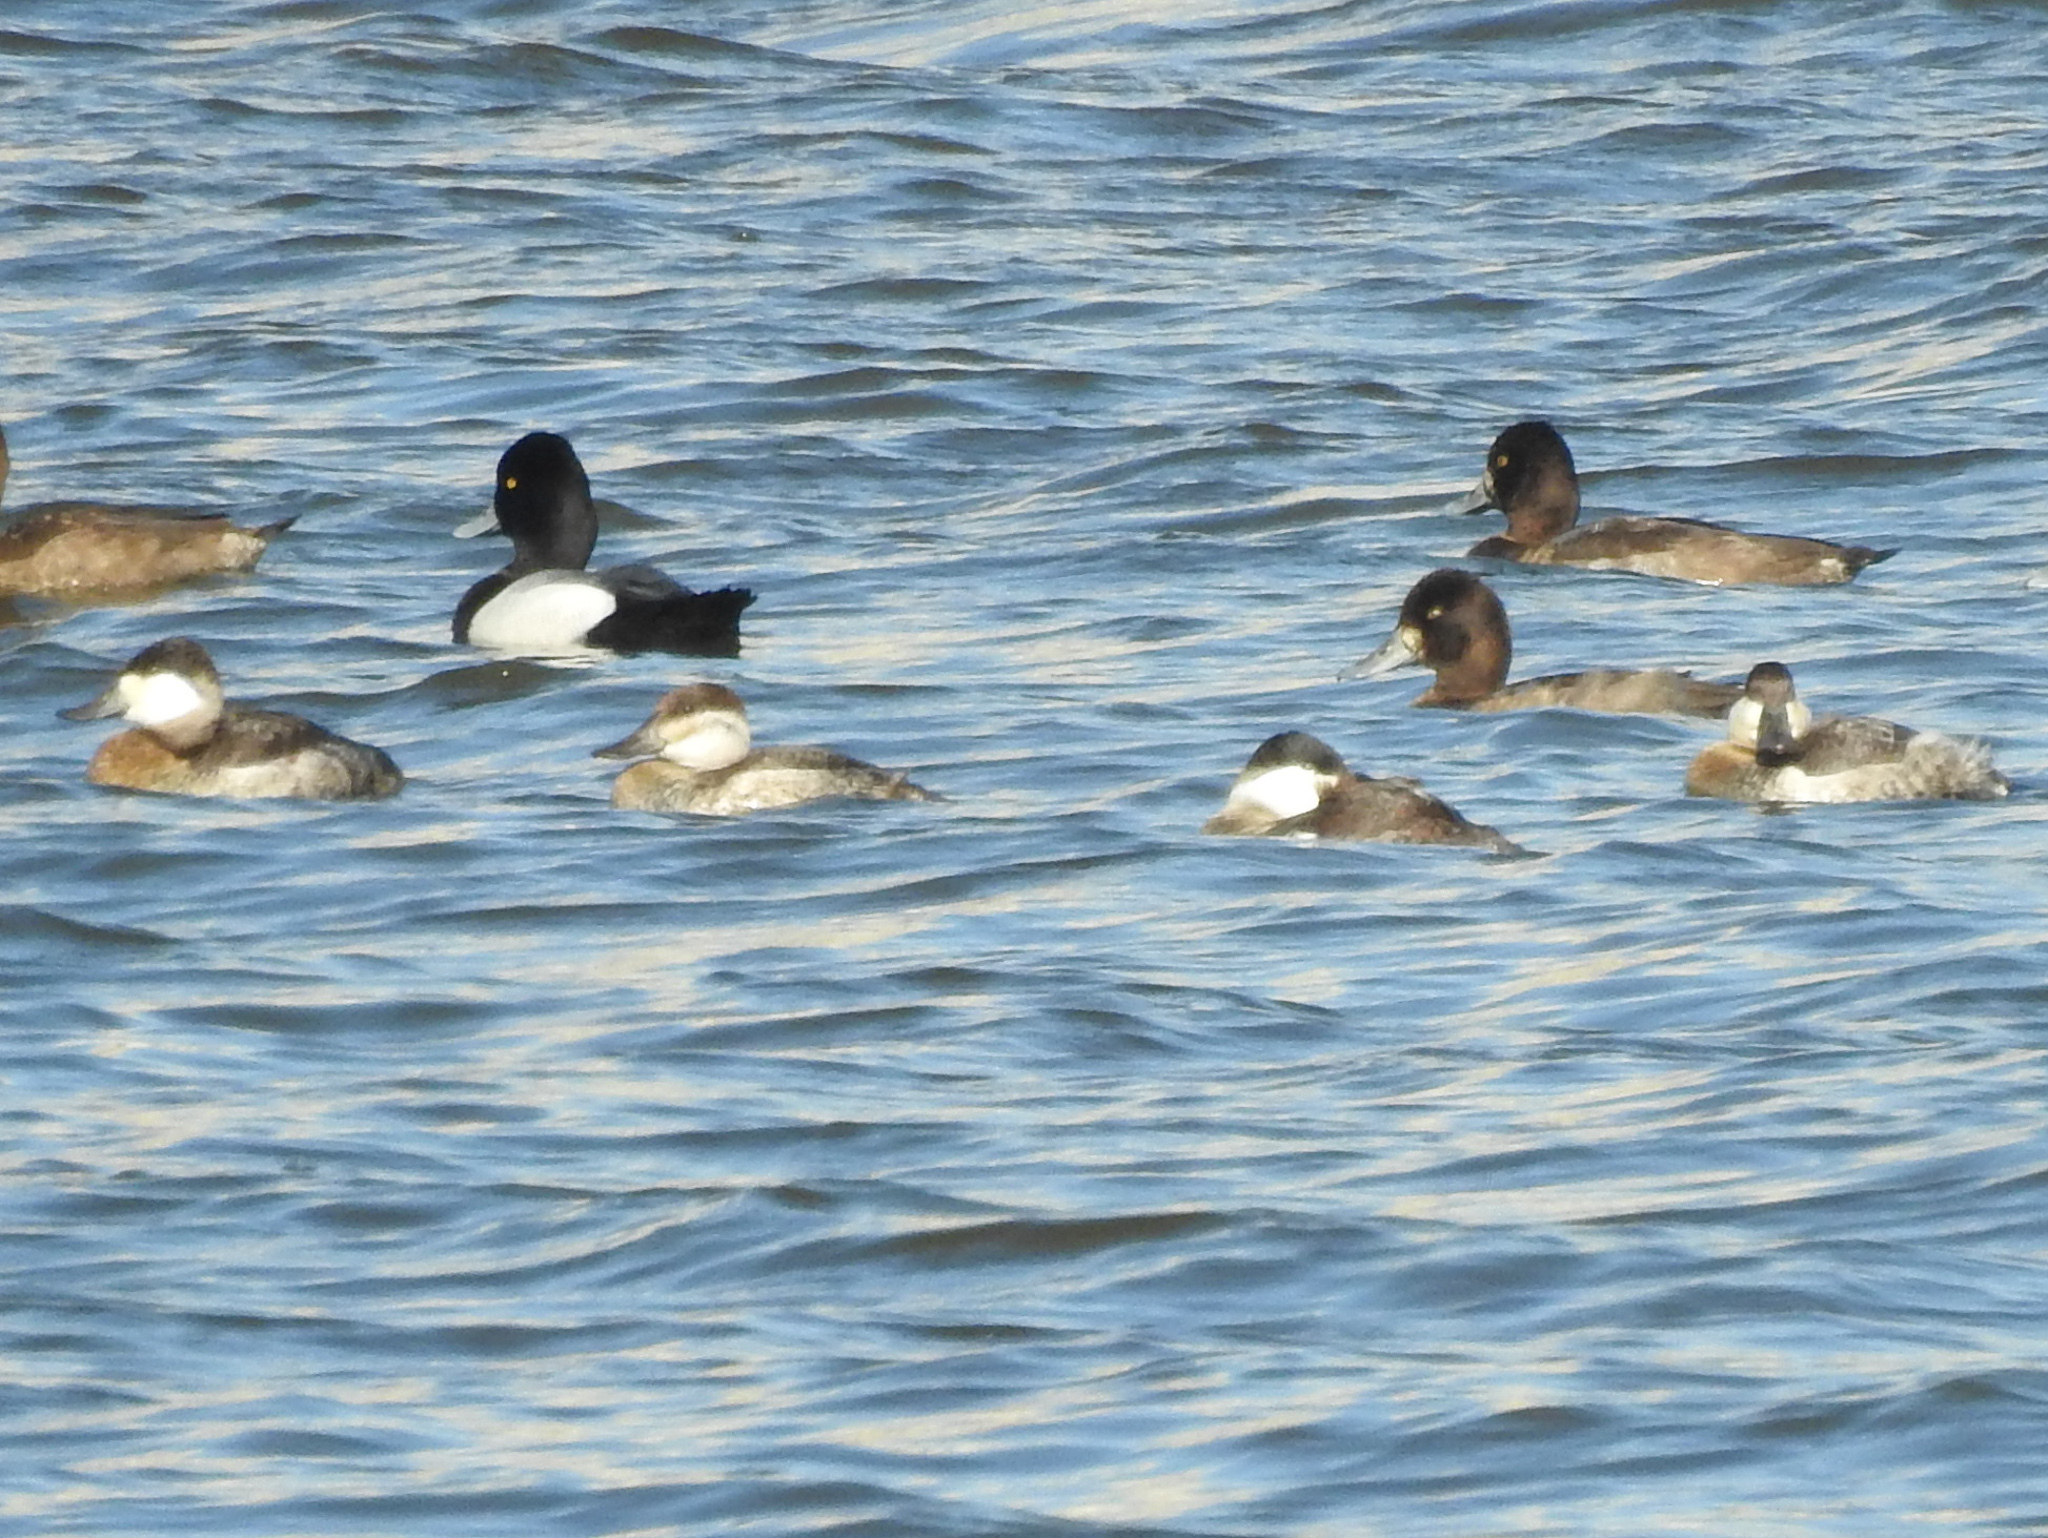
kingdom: Animalia
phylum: Chordata
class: Aves
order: Anseriformes
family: Anatidae
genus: Oxyura
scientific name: Oxyura jamaicensis
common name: Ruddy duck
